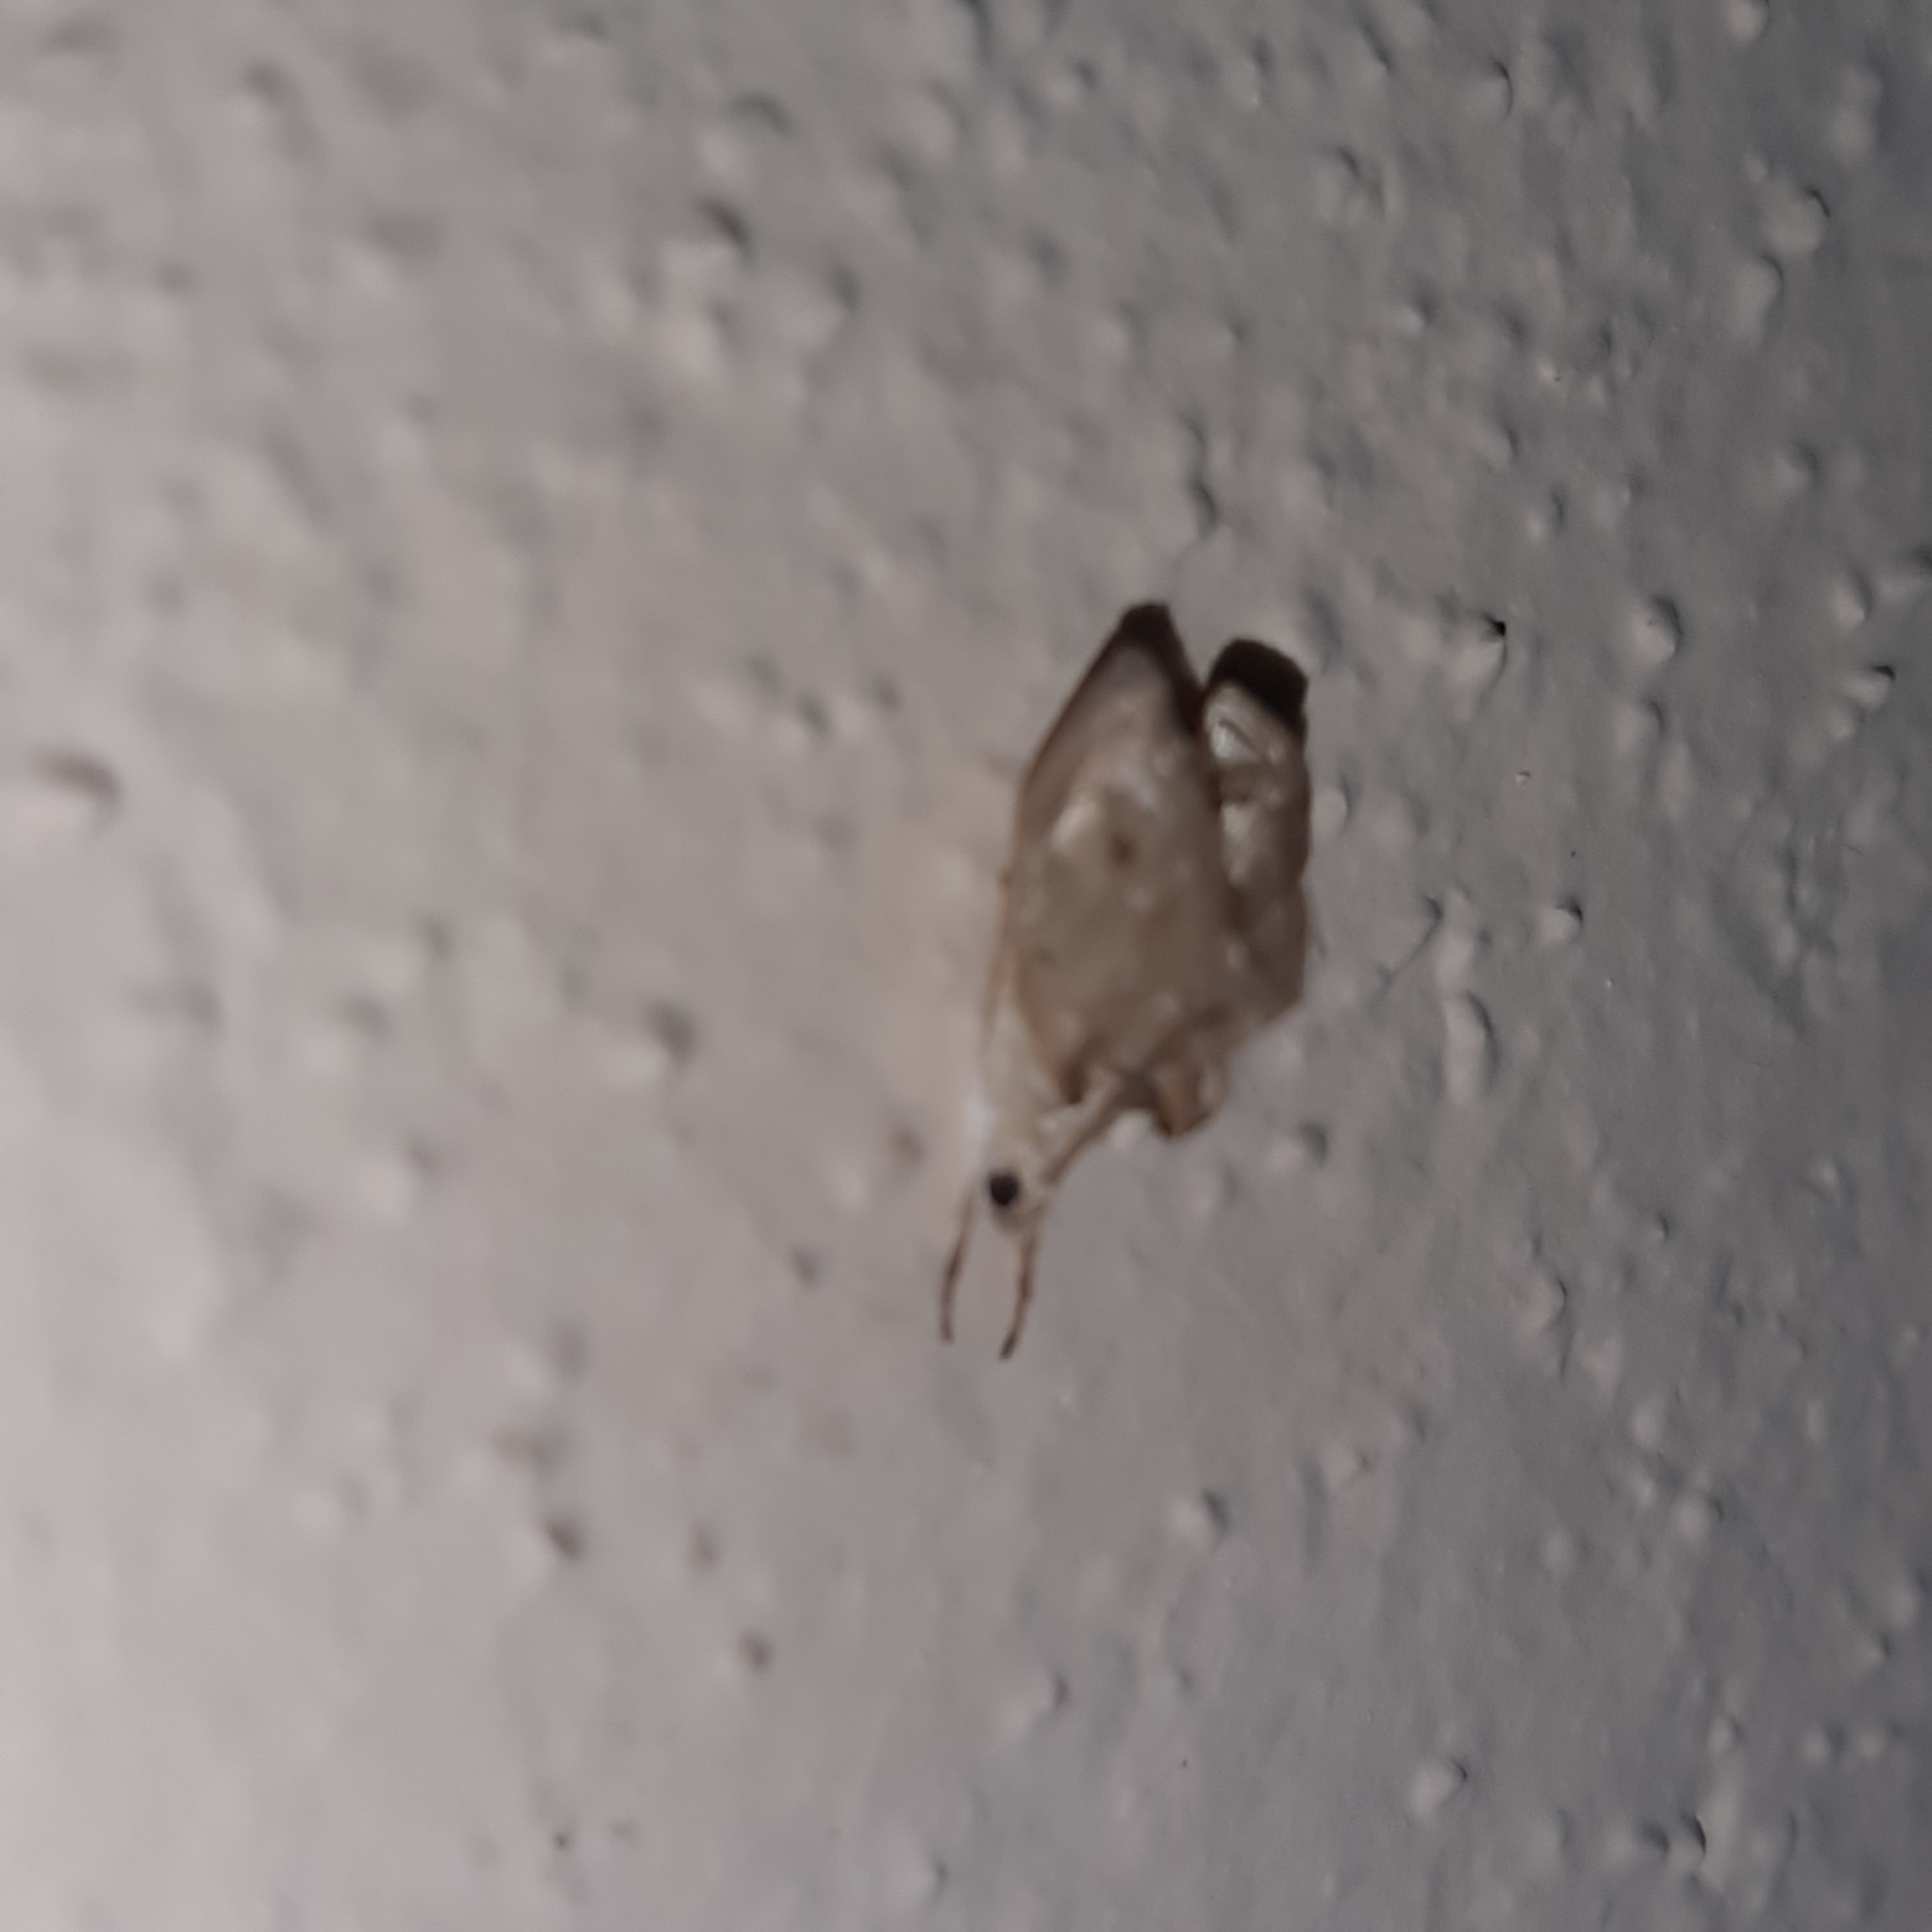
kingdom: Animalia
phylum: Arthropoda
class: Insecta
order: Lepidoptera
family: Crambidae
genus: Lipocosma
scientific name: Lipocosma nigripictalis
